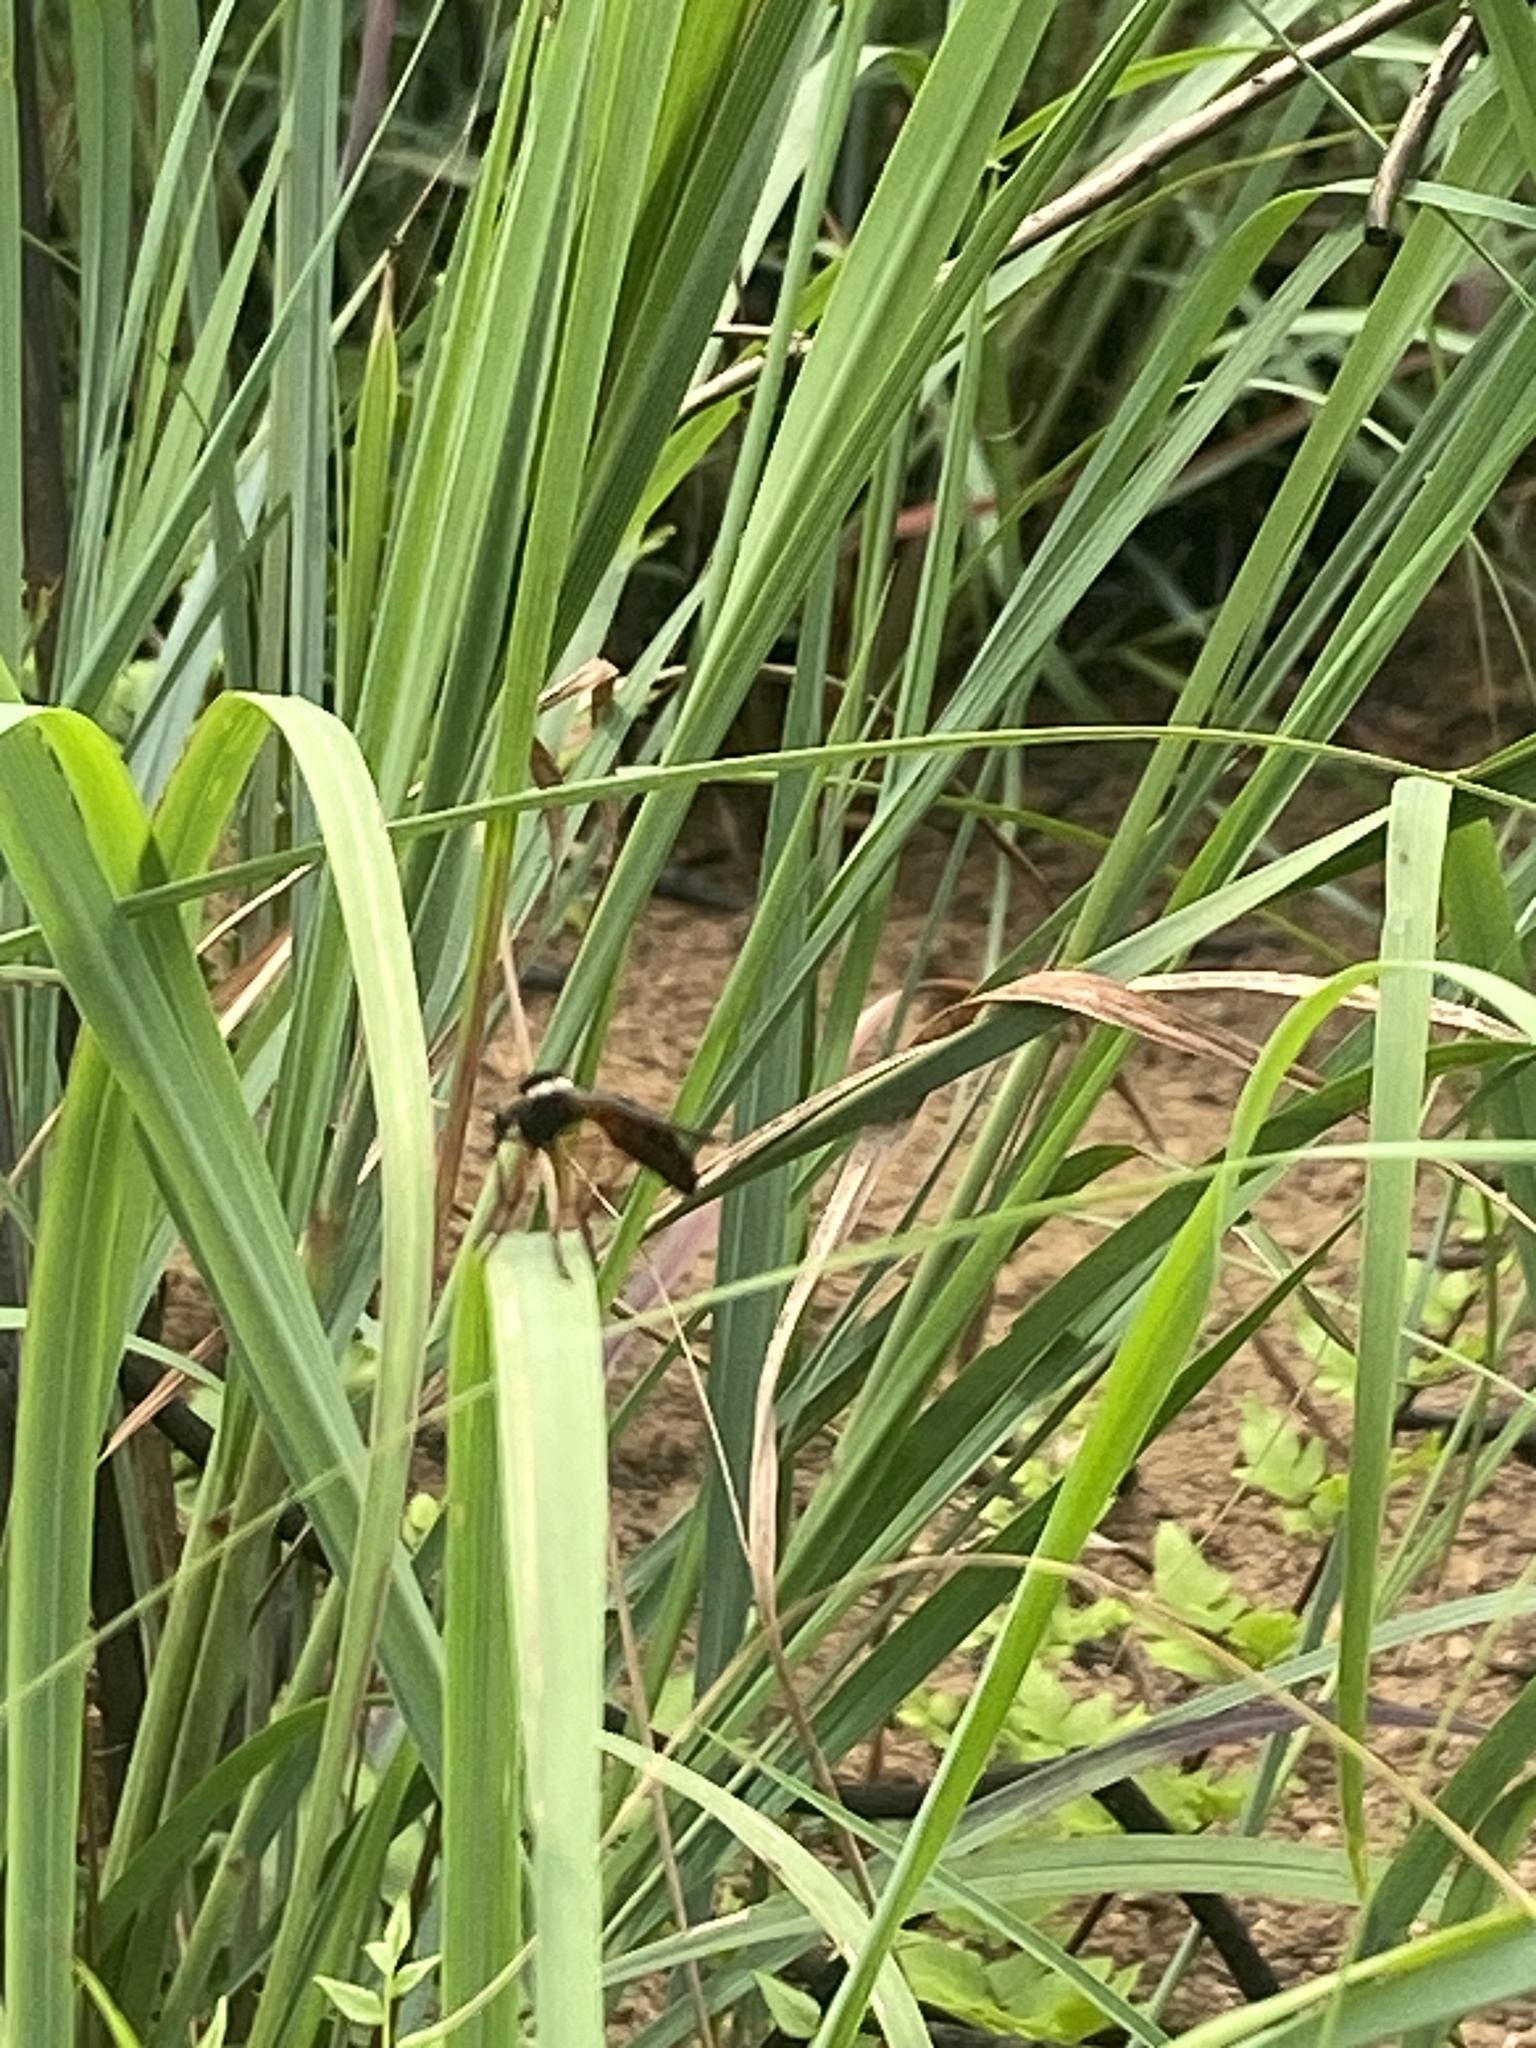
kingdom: Animalia
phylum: Arthropoda
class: Insecta
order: Diptera
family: Asilidae
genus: Pegesimallus
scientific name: Pegesimallus
